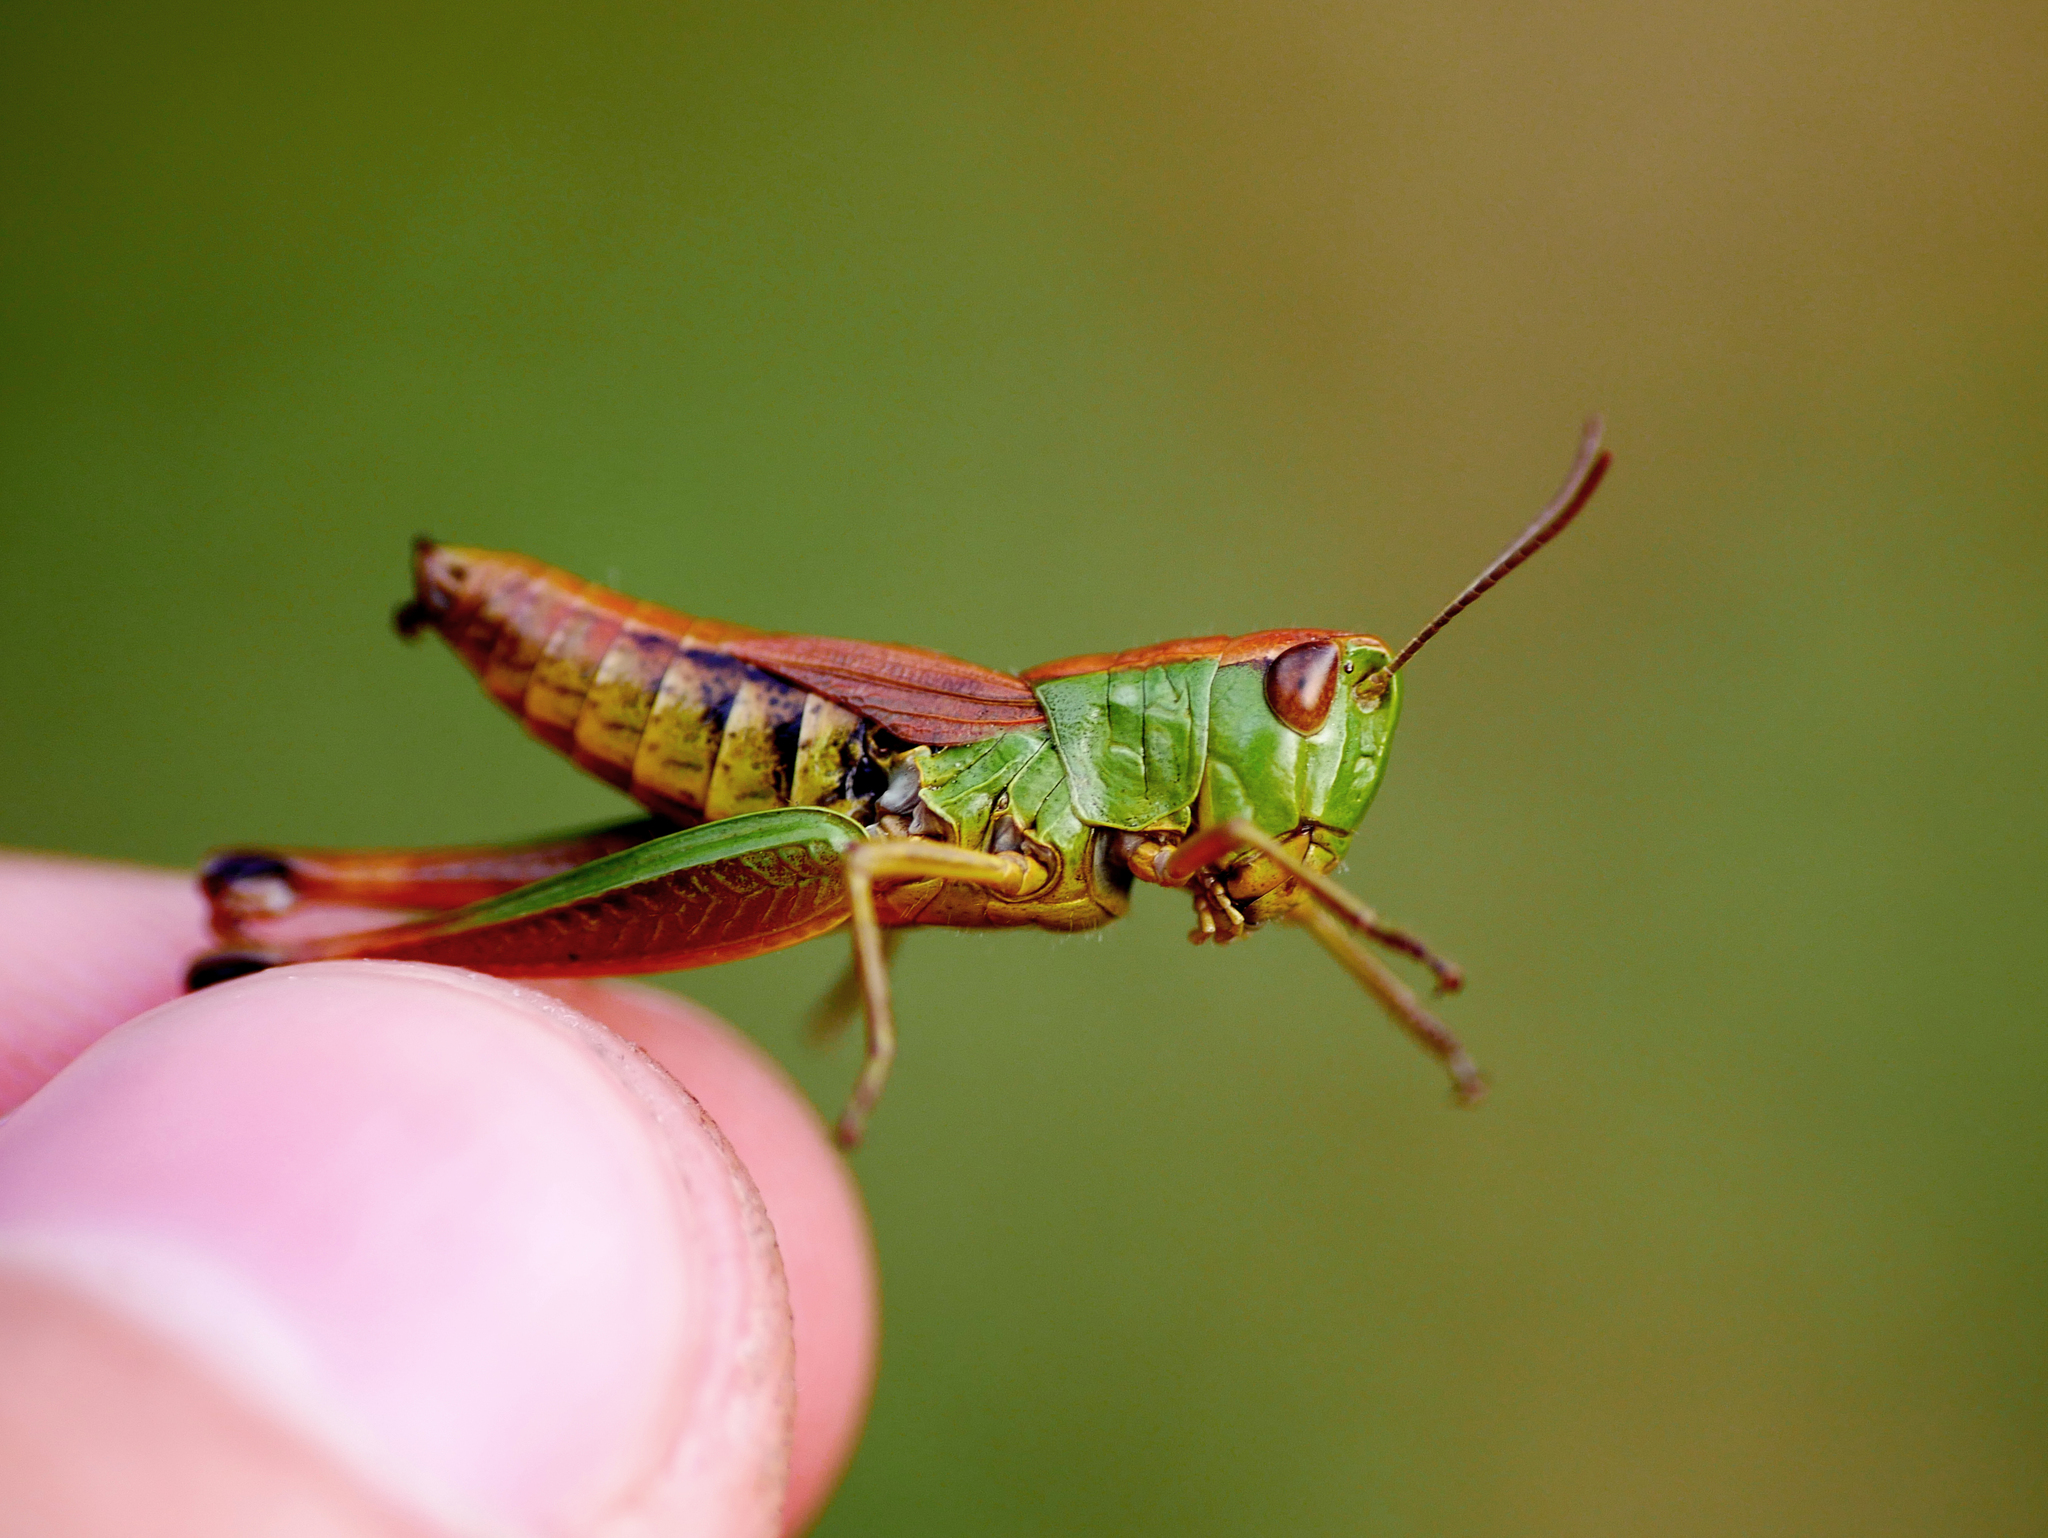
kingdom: Animalia
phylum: Arthropoda
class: Insecta
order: Orthoptera
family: Acrididae
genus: Pseudochorthippus
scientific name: Pseudochorthippus parallelus
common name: Meadow grasshopper
